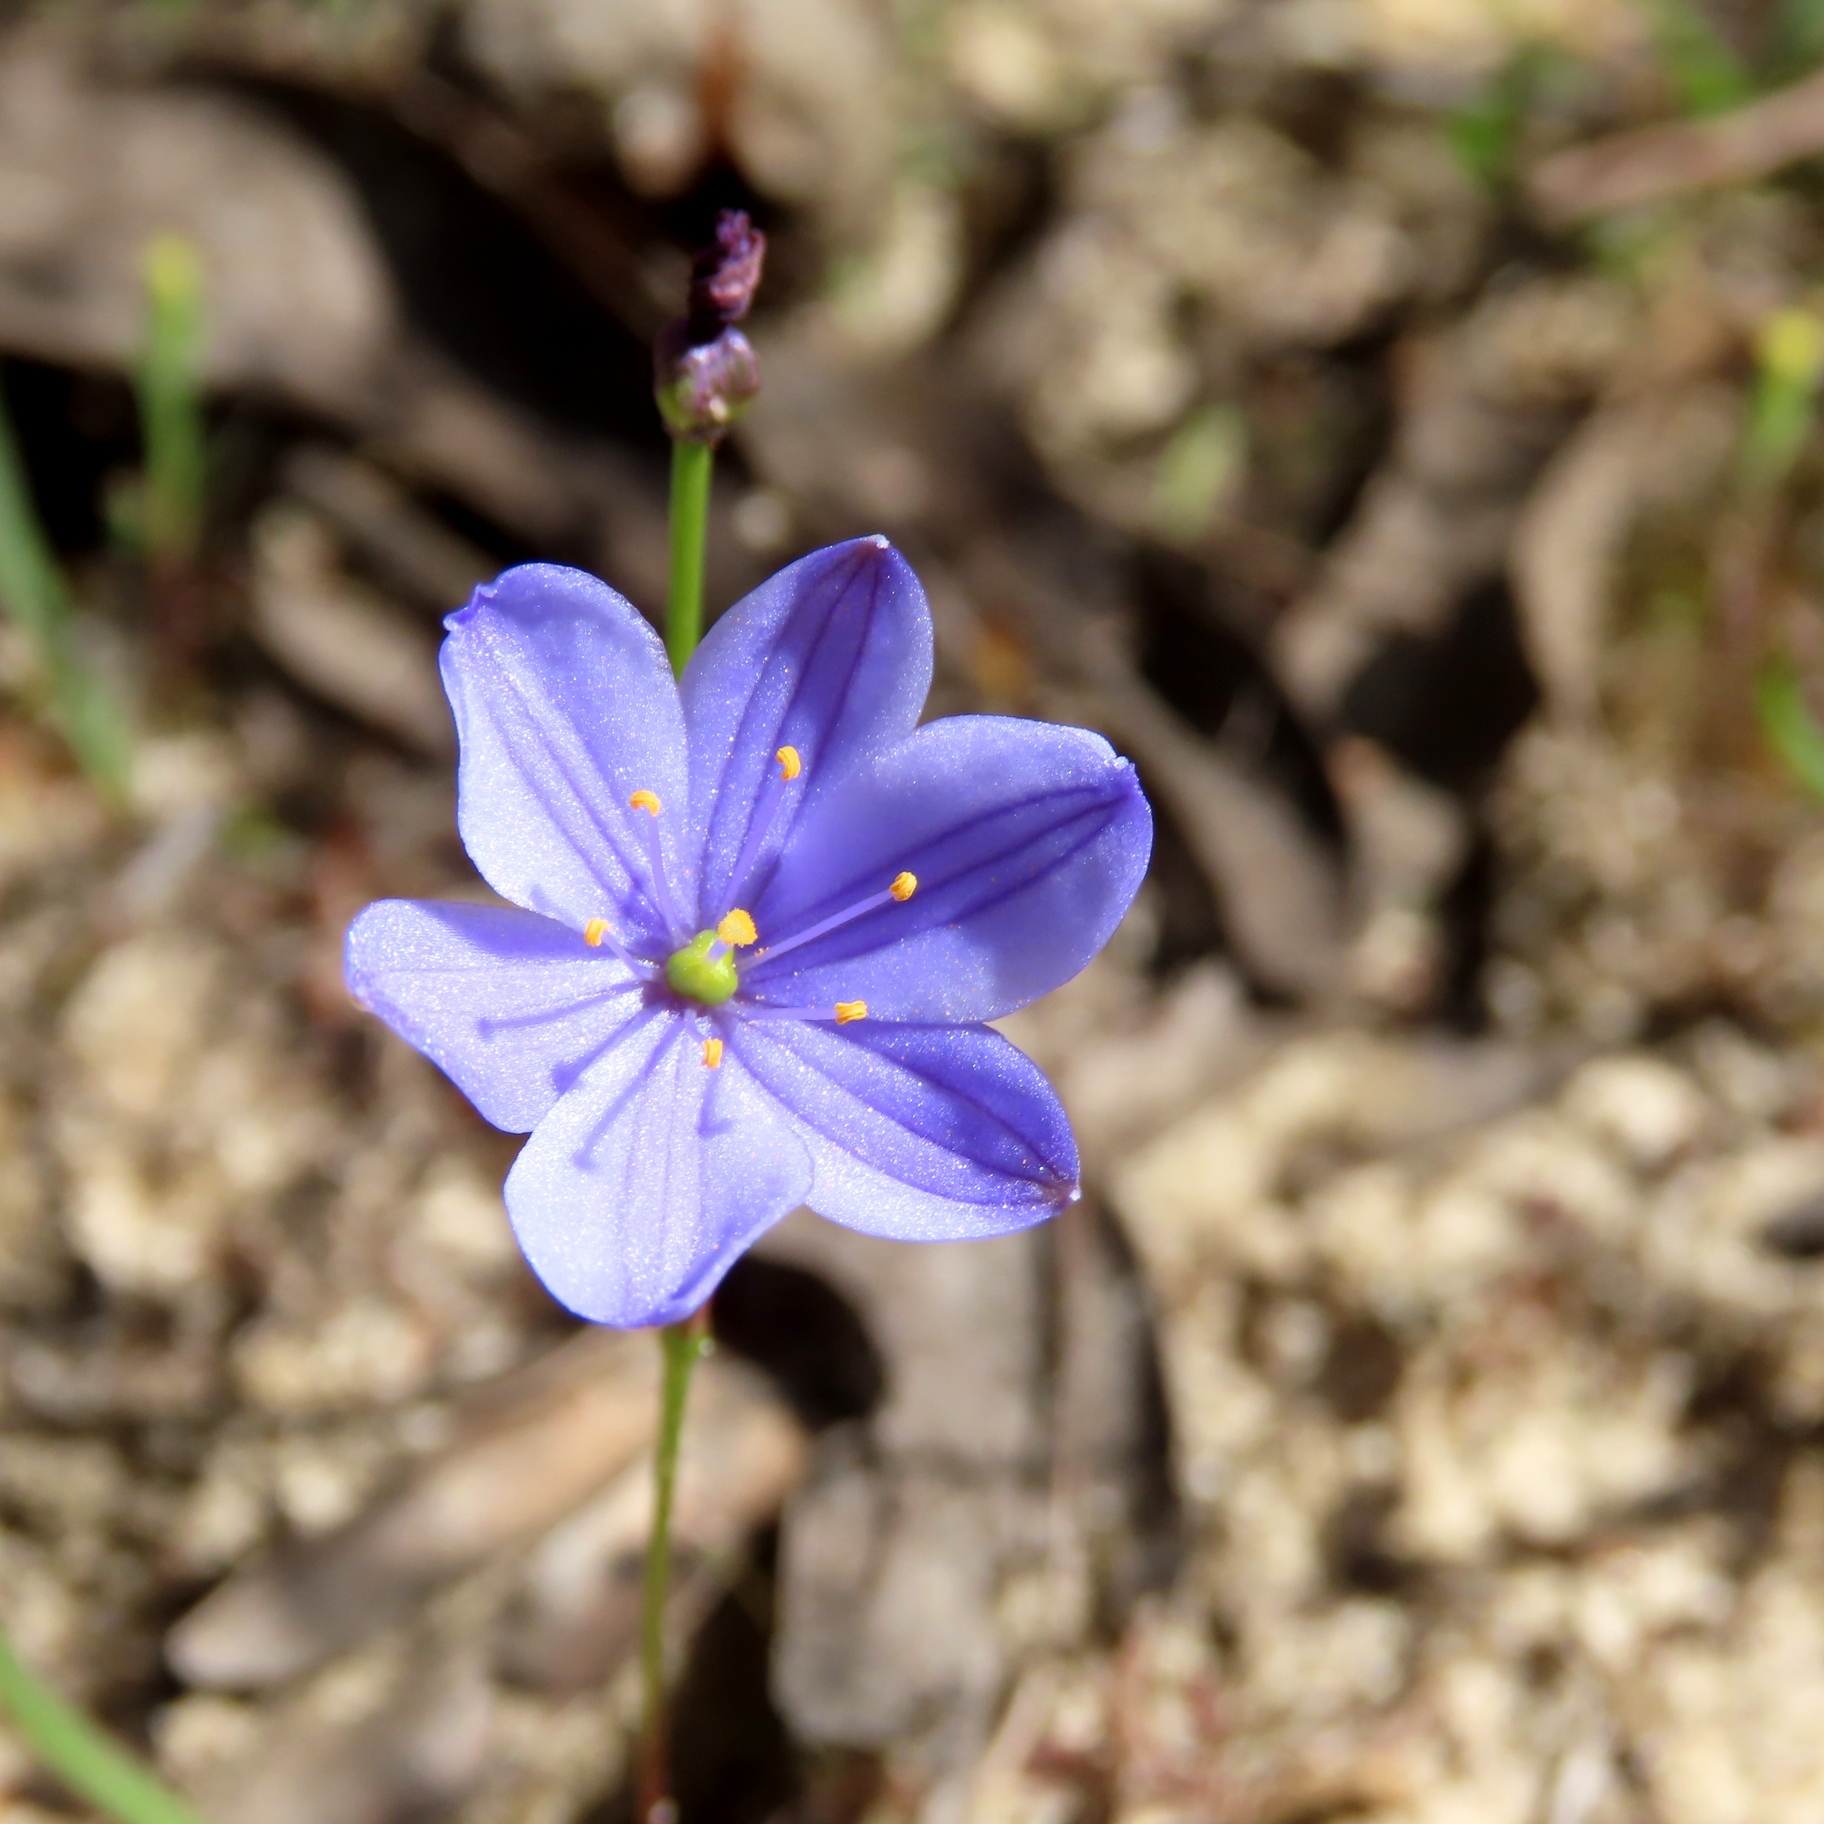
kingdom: Plantae
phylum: Tracheophyta
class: Liliopsida
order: Asparagales
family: Asphodelaceae
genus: Chamaescilla
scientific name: Chamaescilla corymbosa
